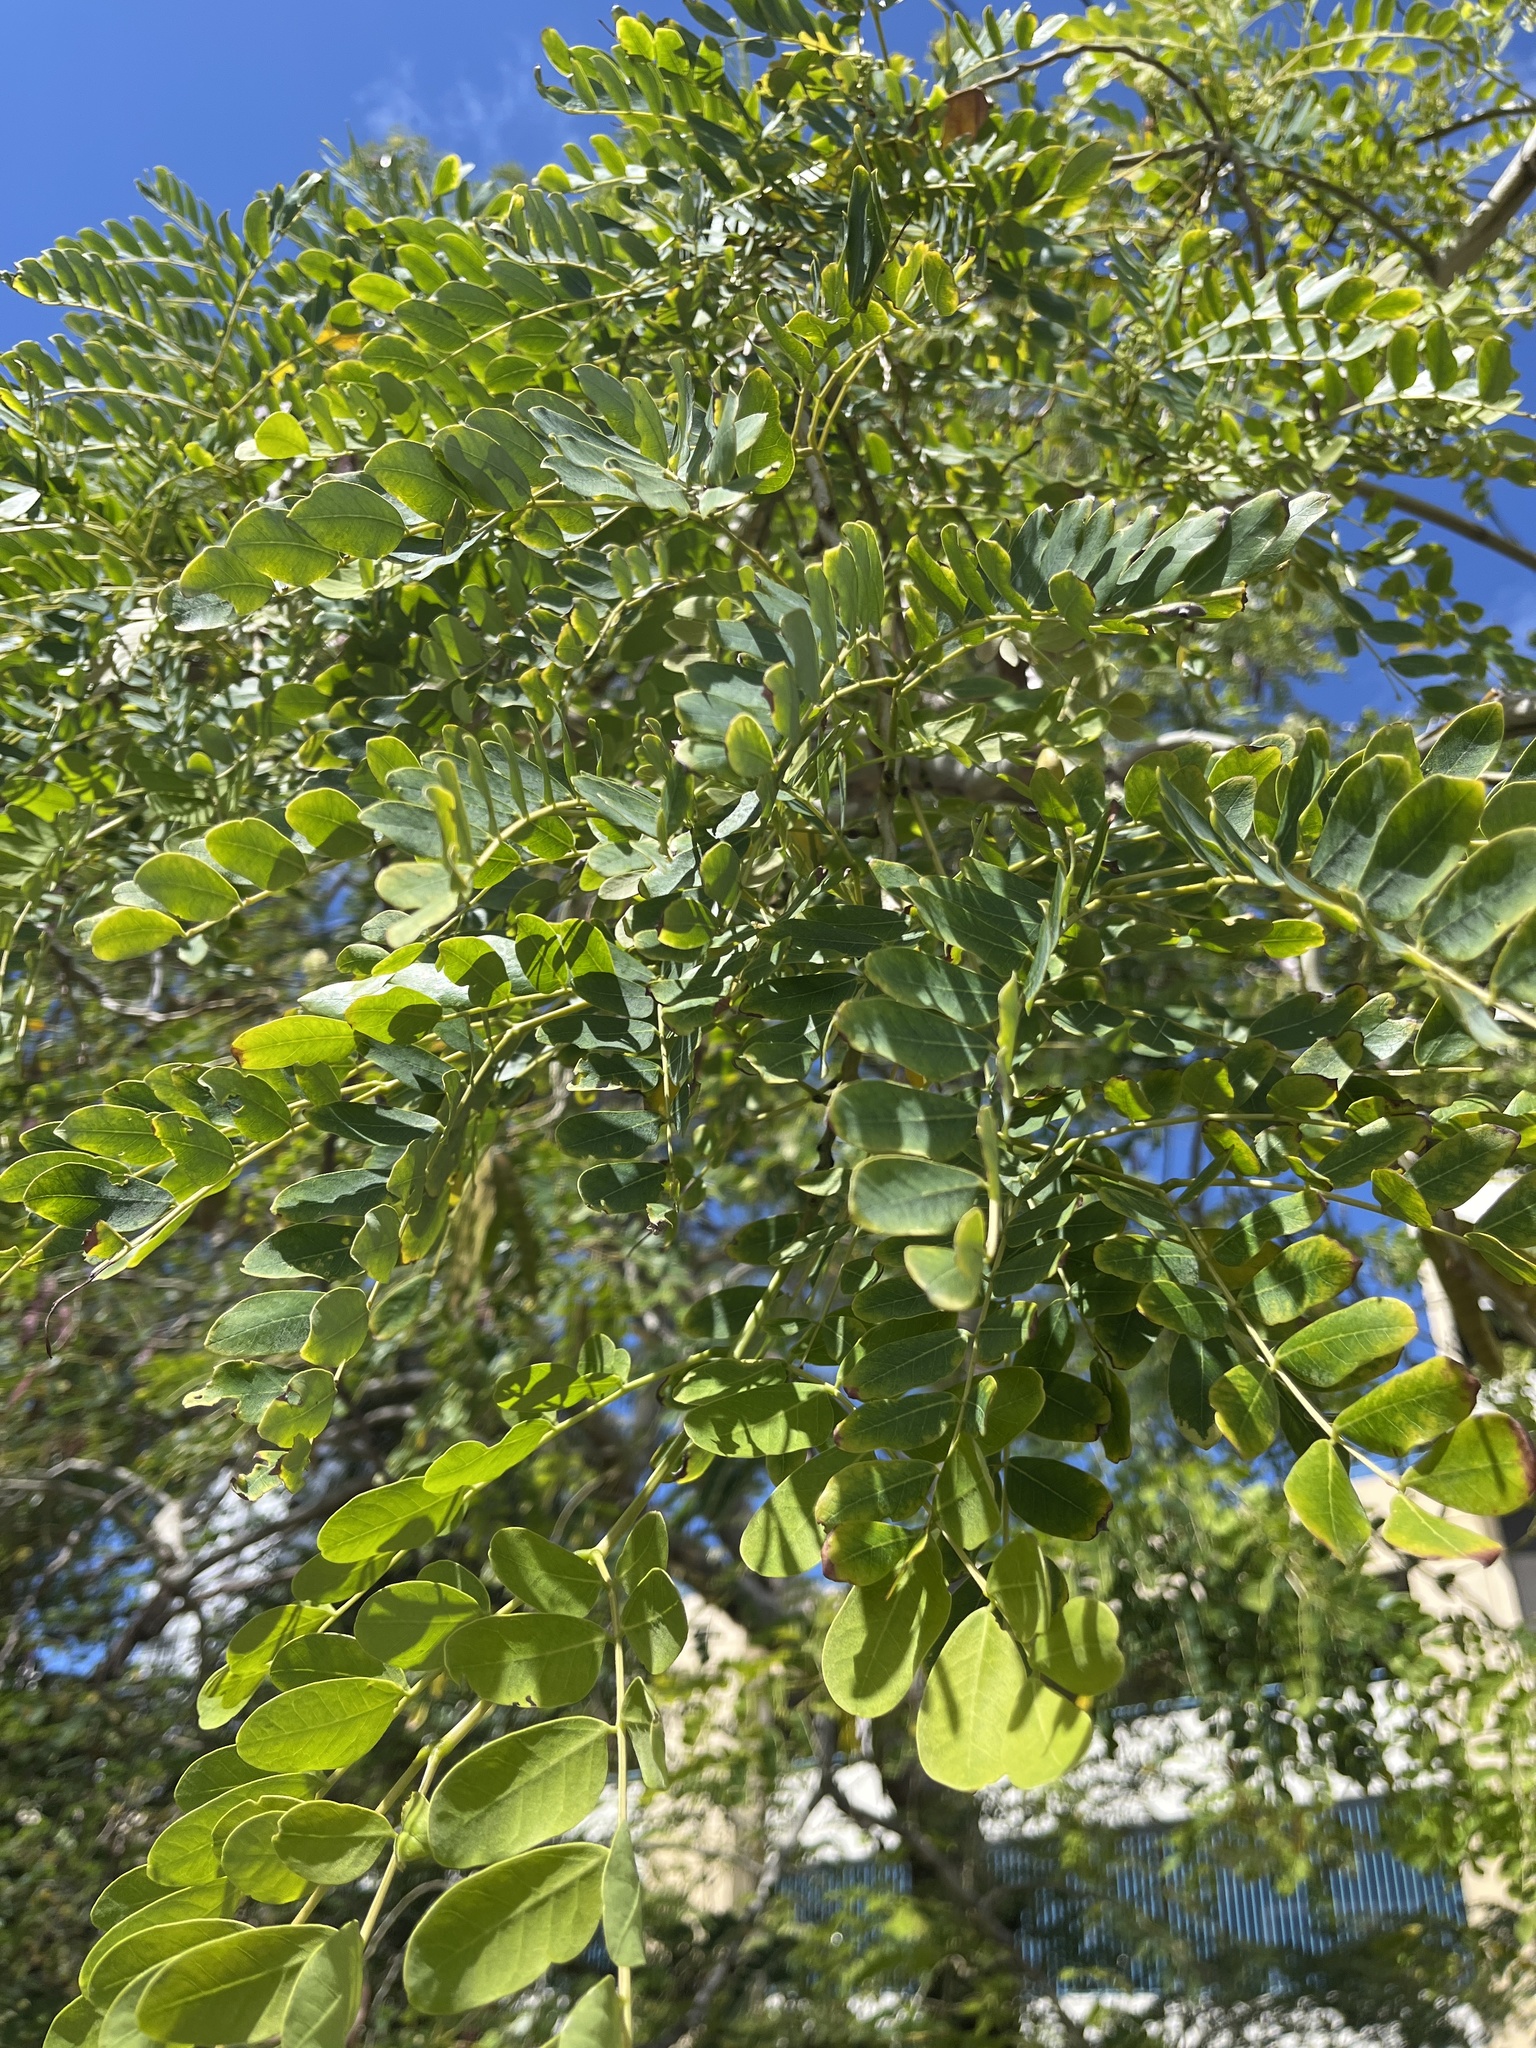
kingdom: Plantae
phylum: Tracheophyta
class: Magnoliopsida
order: Fabales
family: Fabaceae
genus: Albizia
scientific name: Albizia lebbeck
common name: Woman's tongue
